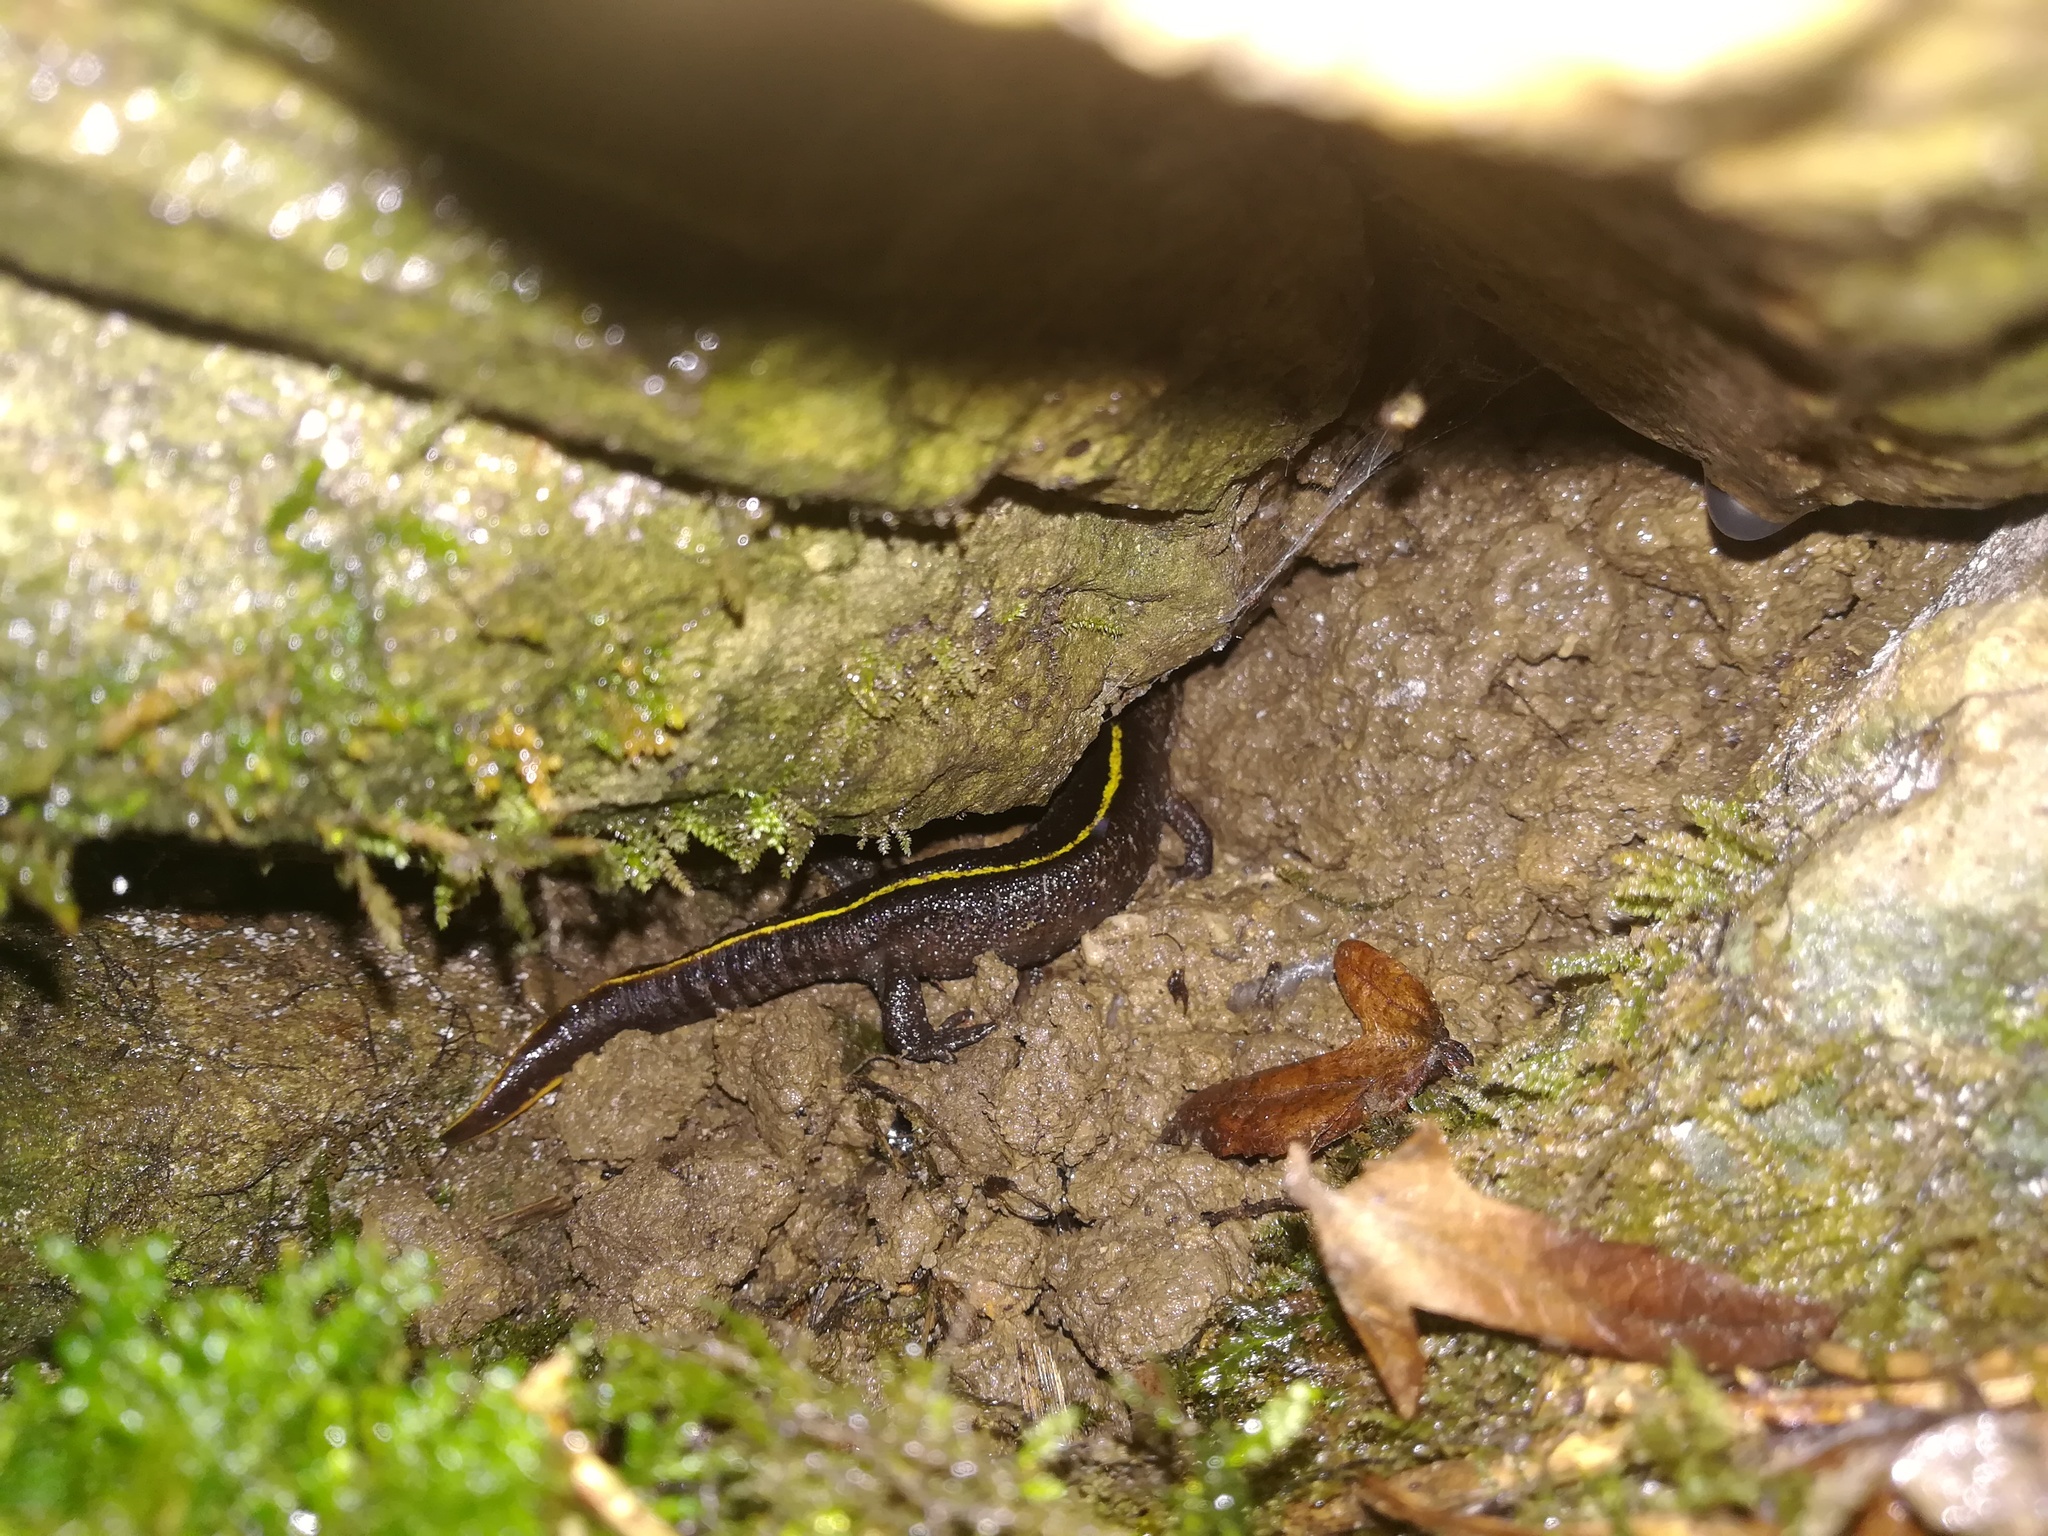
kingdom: Animalia
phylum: Chordata
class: Amphibia
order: Caudata
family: Salamandridae
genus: Triturus
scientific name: Triturus carnifex
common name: Italian crested newt
